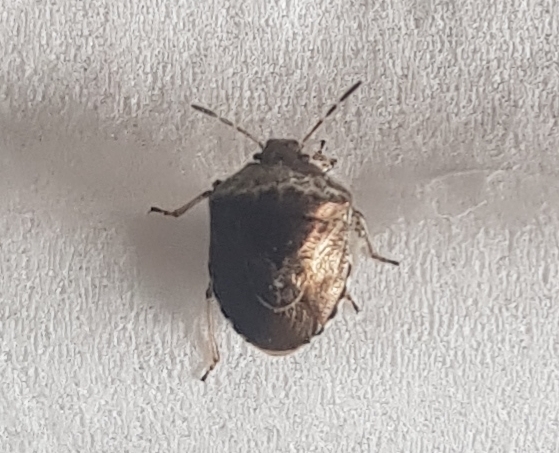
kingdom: Animalia
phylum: Arthropoda
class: Insecta
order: Hemiptera
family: Pentatomidae
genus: Eysarcoris
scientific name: Eysarcoris venustissimus
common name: Woundwort shieldbug
